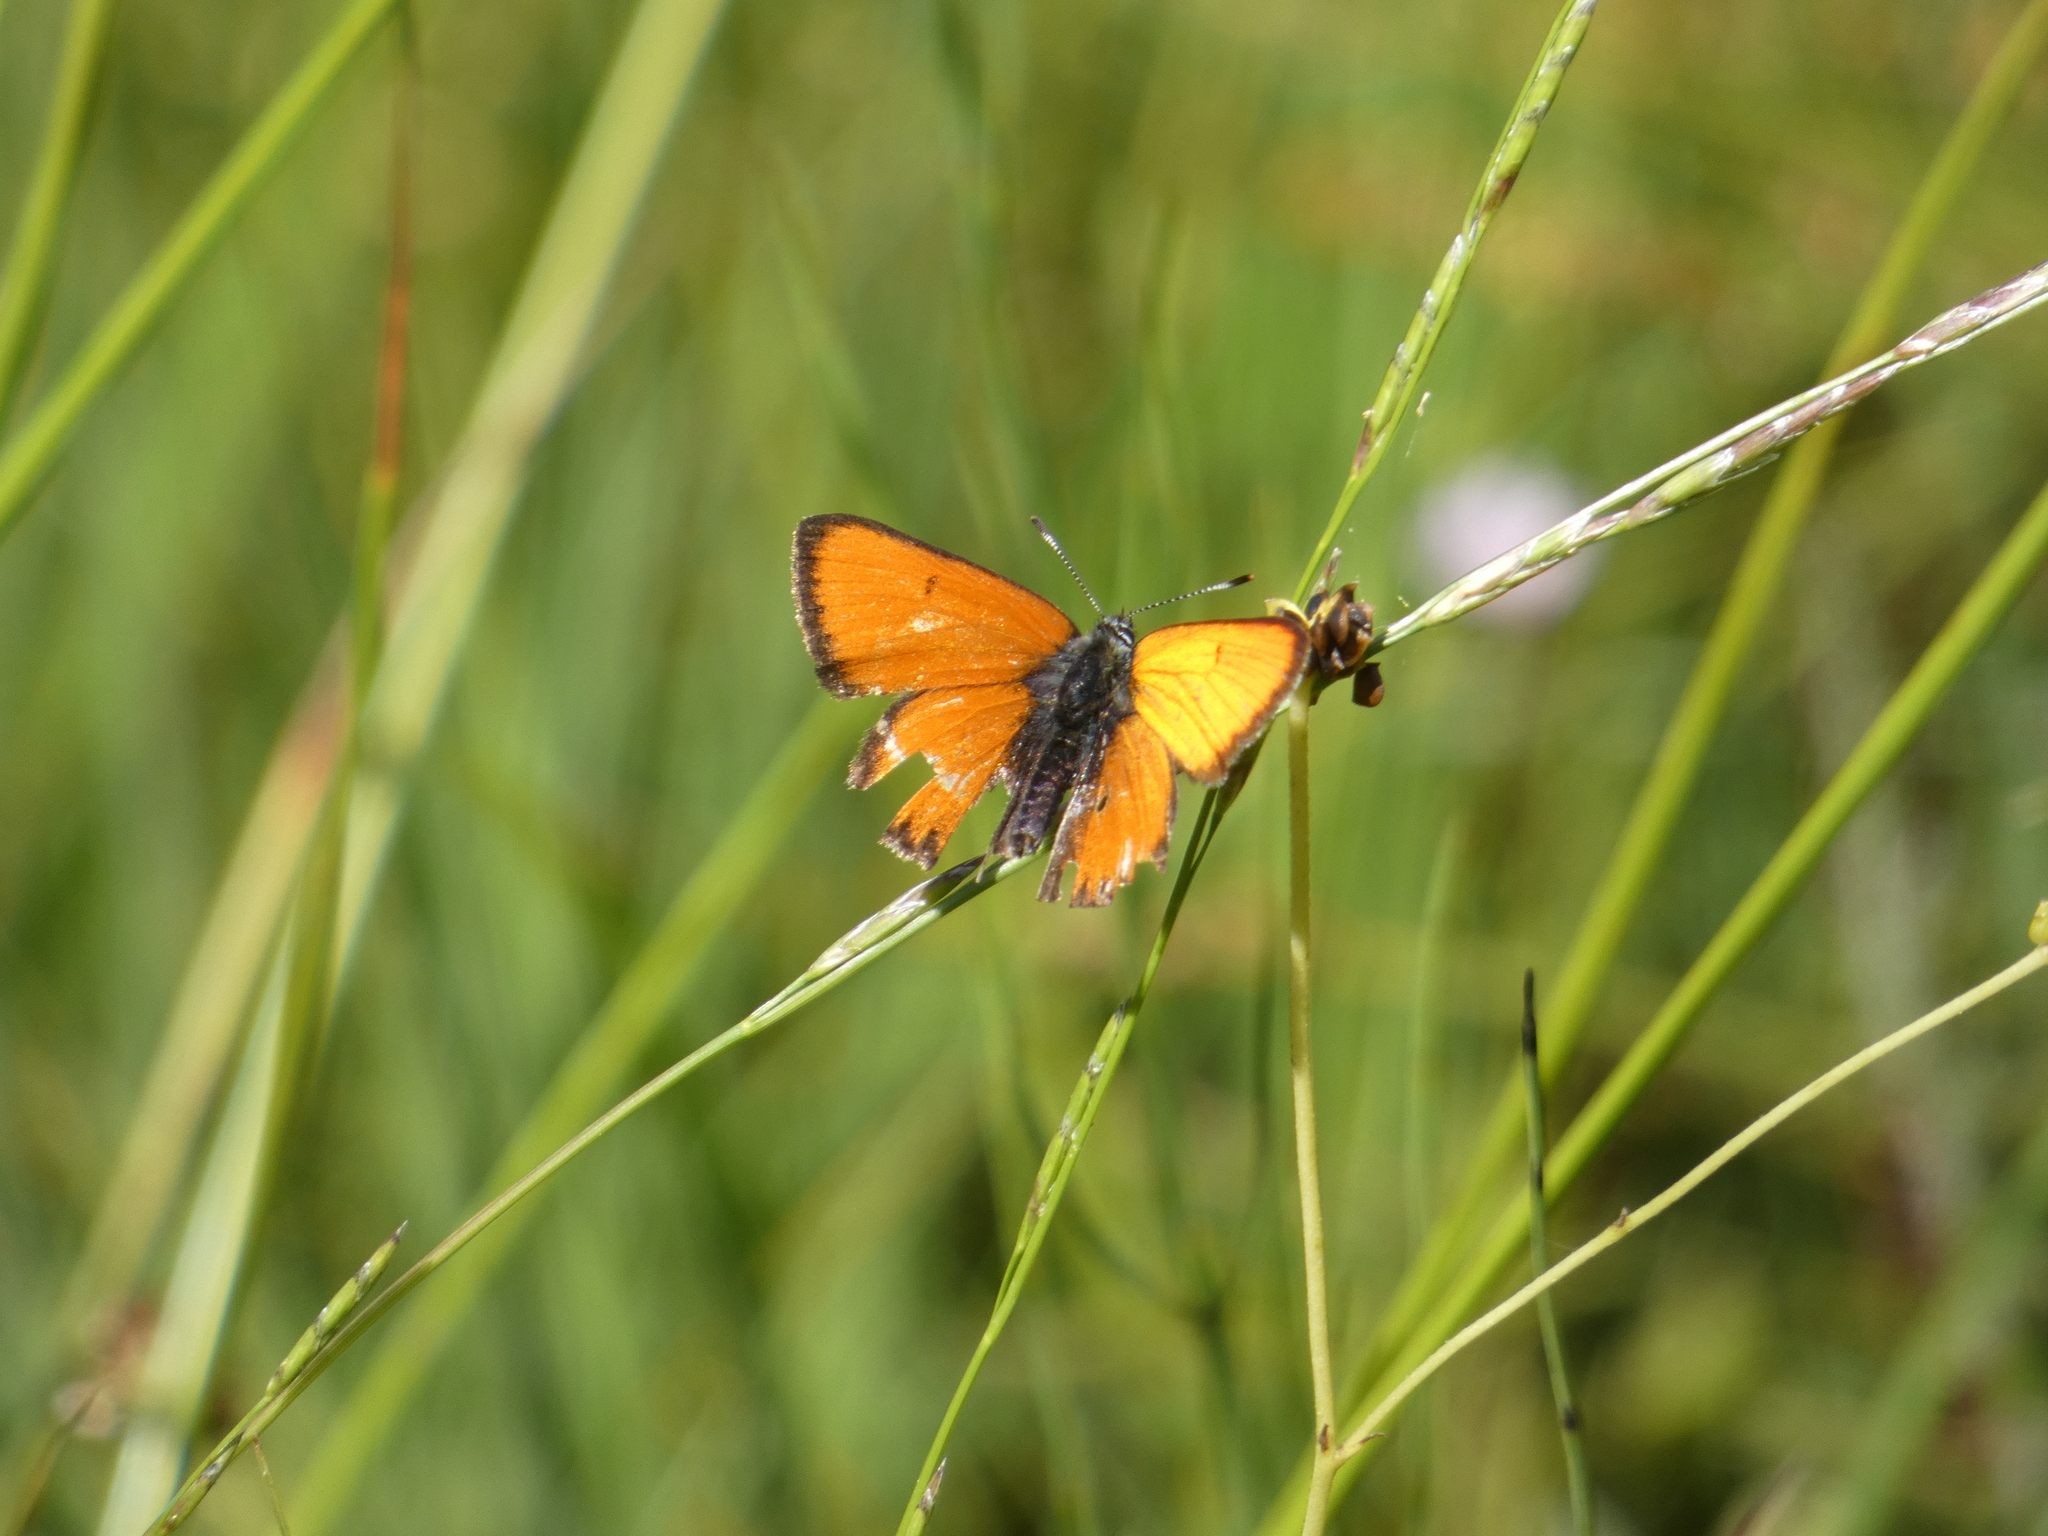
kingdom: Animalia
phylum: Arthropoda
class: Insecta
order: Lepidoptera
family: Lycaenidae
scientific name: Lycaenidae
